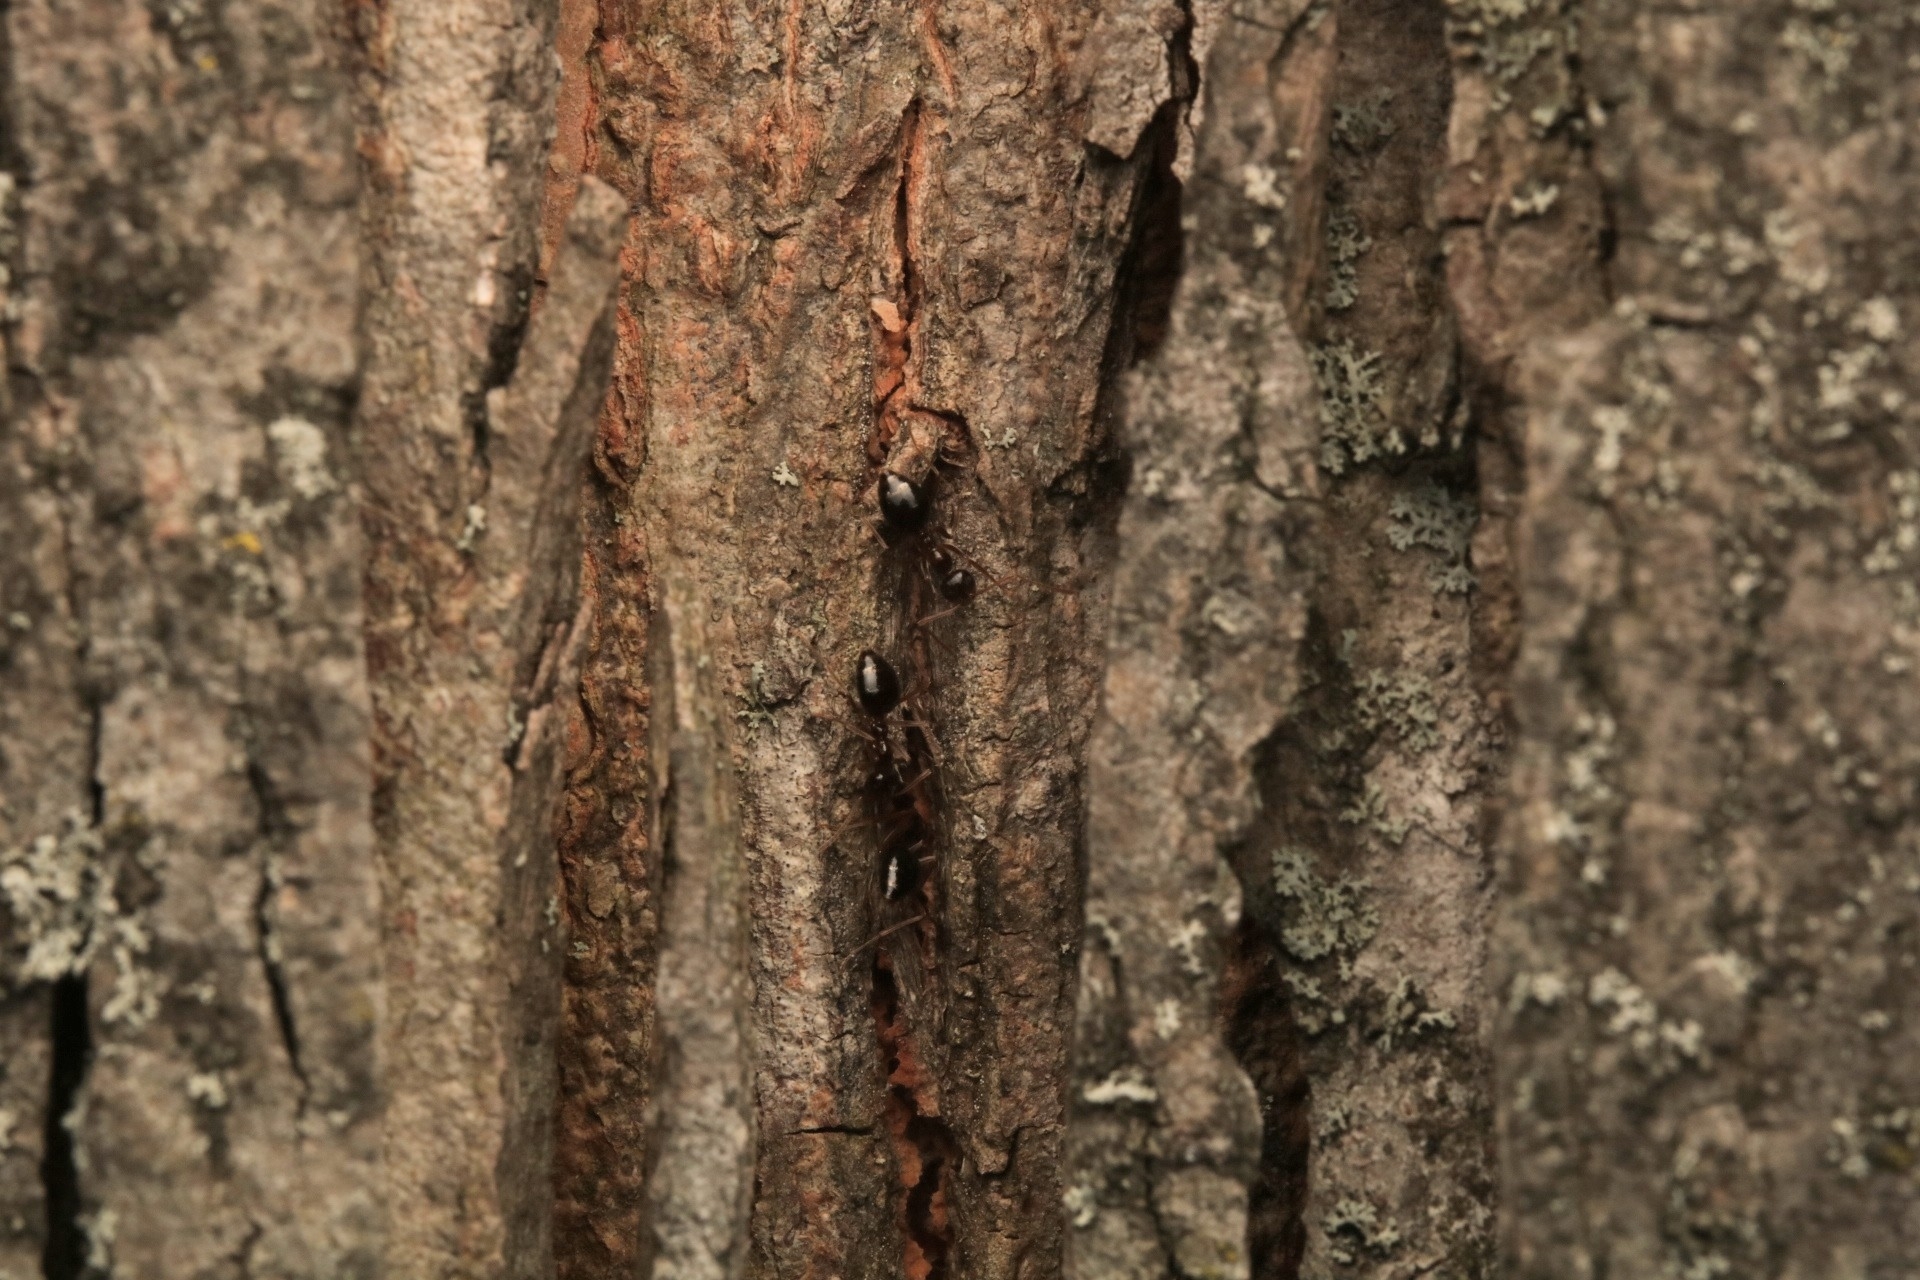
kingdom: Animalia
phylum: Arthropoda
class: Insecta
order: Hymenoptera
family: Formicidae
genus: Prenolepis
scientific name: Prenolepis imparis
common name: Small honey ant
